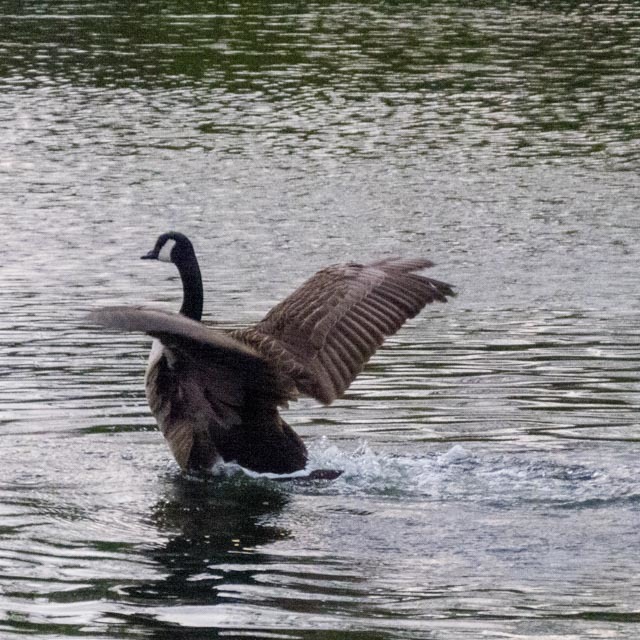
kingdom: Animalia
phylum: Chordata
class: Aves
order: Anseriformes
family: Anatidae
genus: Branta
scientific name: Branta canadensis
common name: Canada goose
